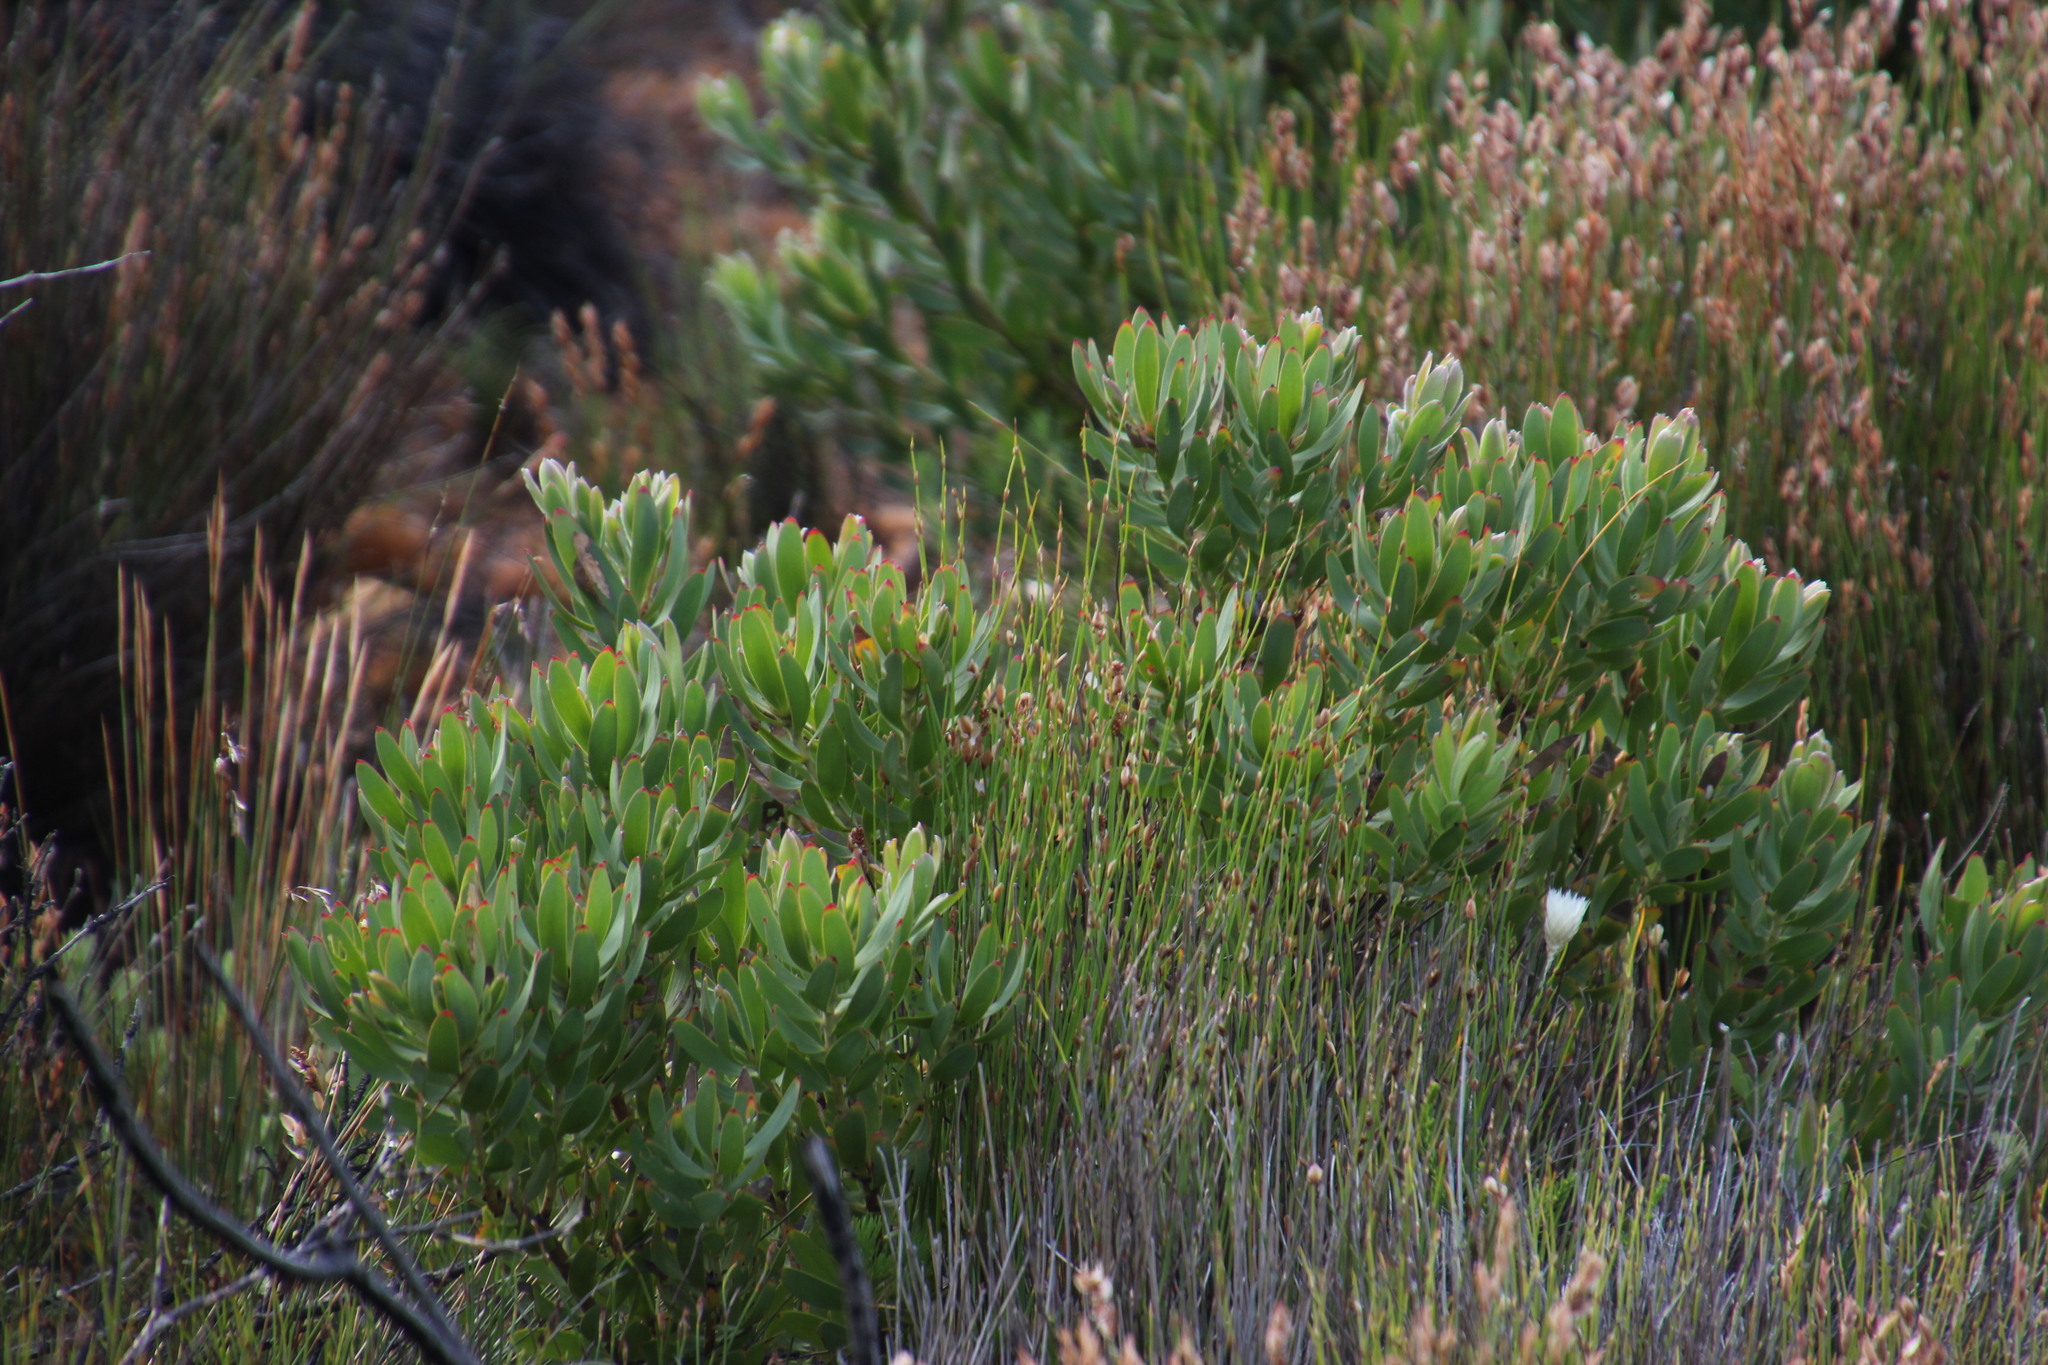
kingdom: Plantae
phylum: Tracheophyta
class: Magnoliopsida
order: Proteales
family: Proteaceae
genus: Leucadendron
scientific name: Leucadendron sessile
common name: Western sunbush
